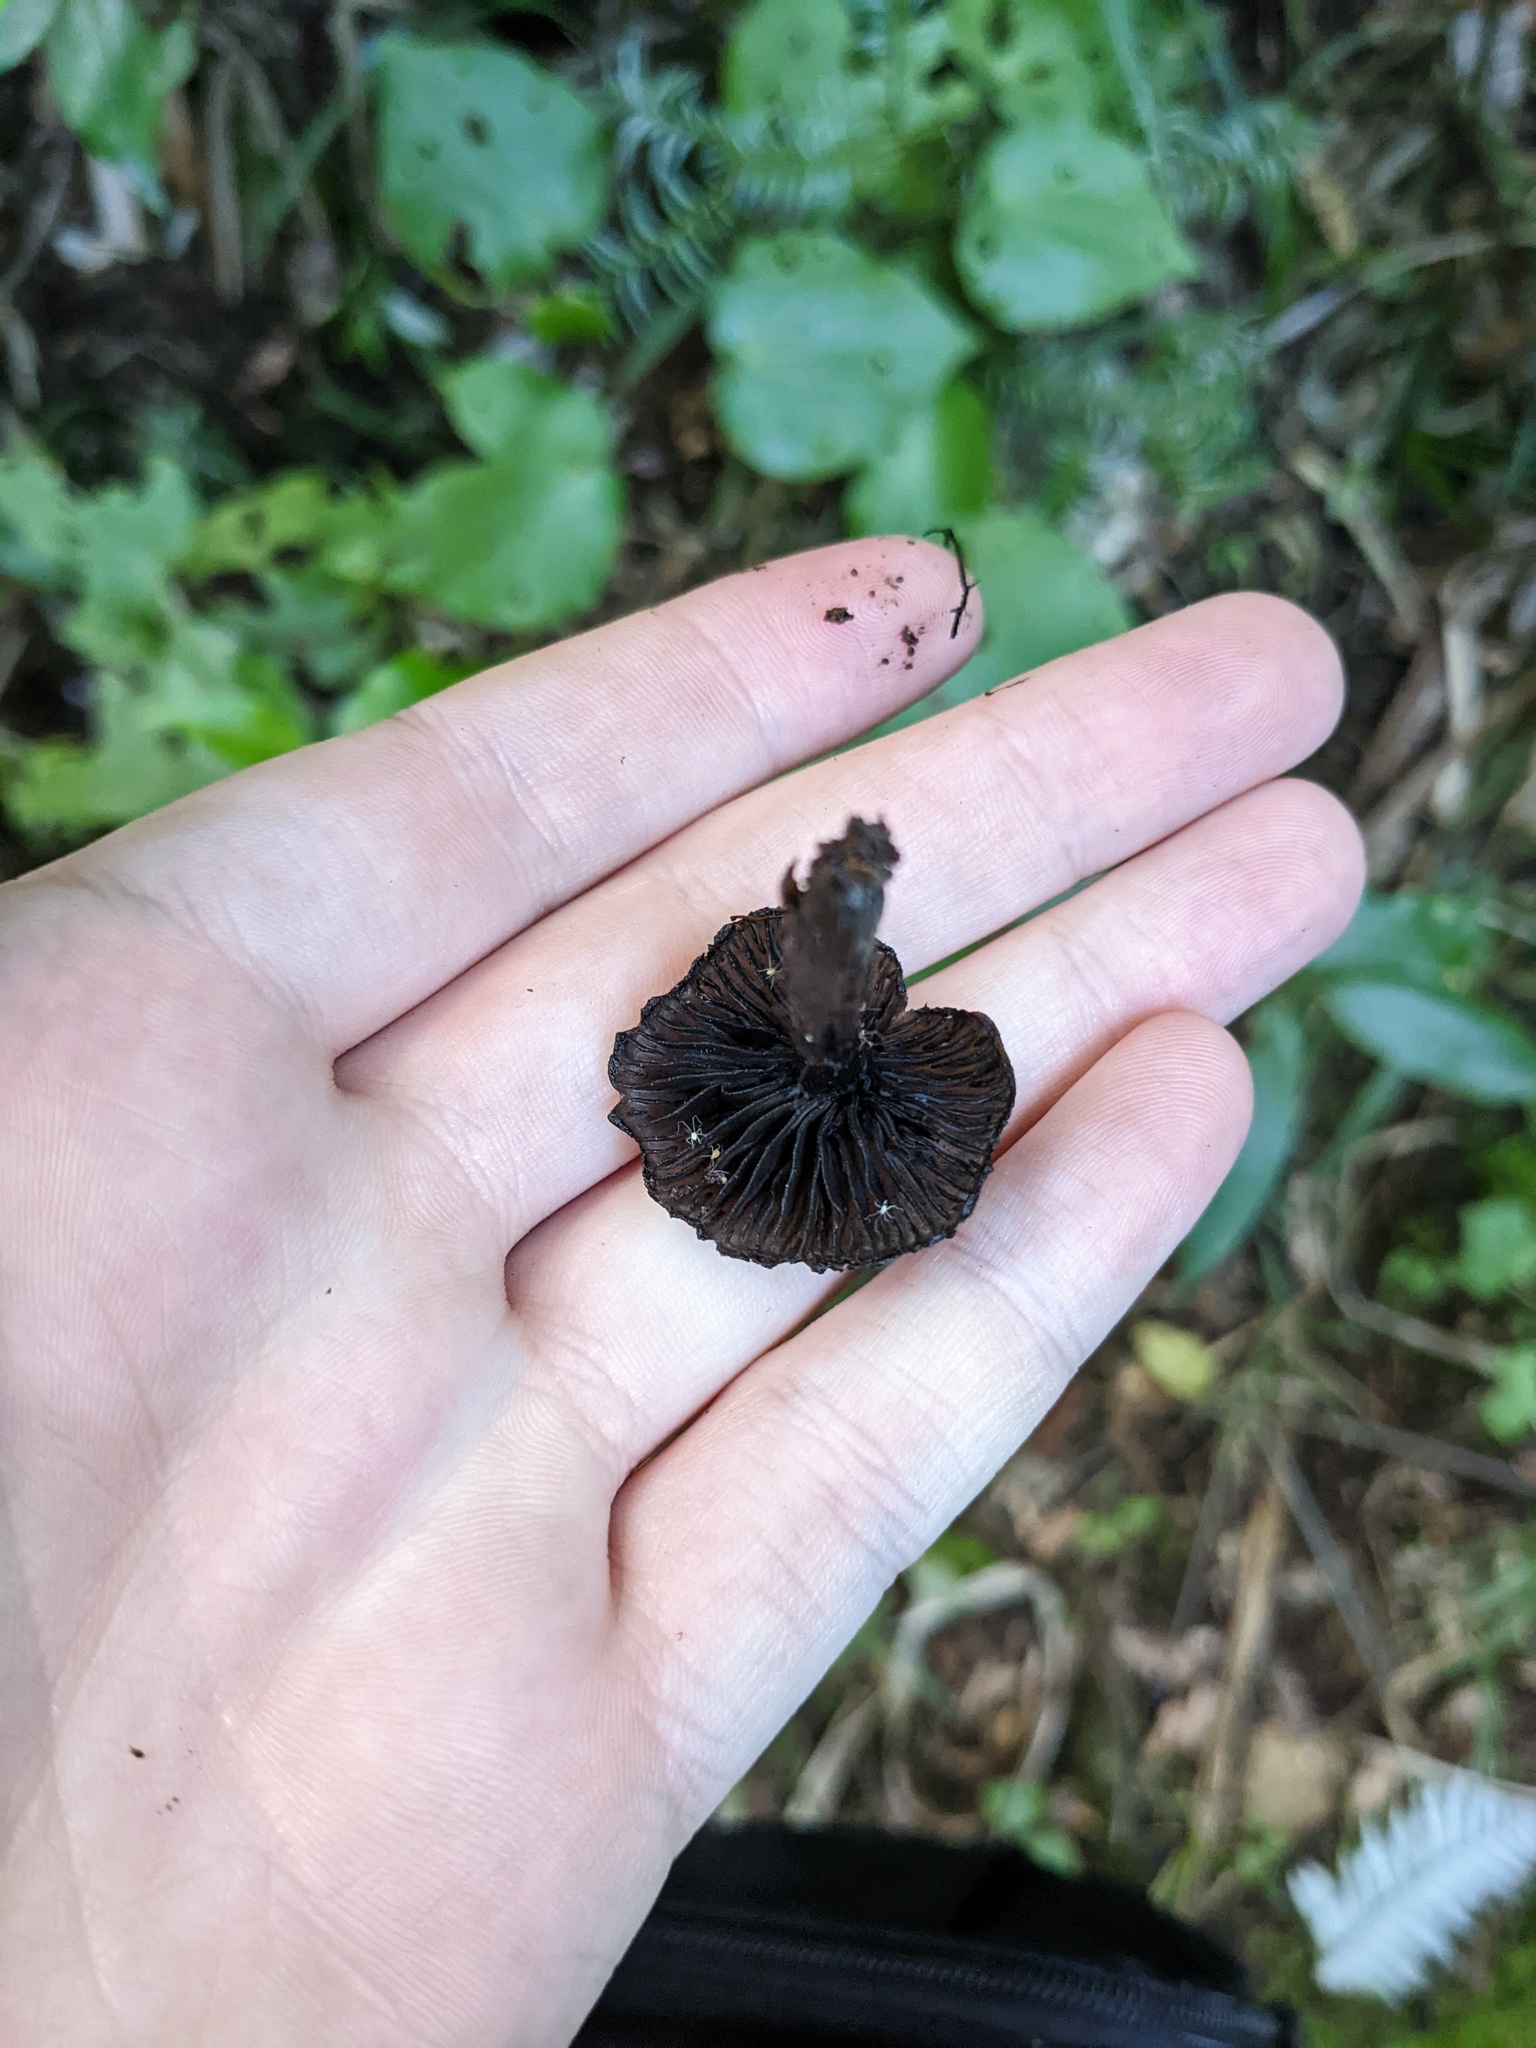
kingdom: Fungi
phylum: Basidiomycota
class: Agaricomycetes
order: Agaricales
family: Hygrophoraceae
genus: Hygrocybe
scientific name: Hygrocybe astatogala
